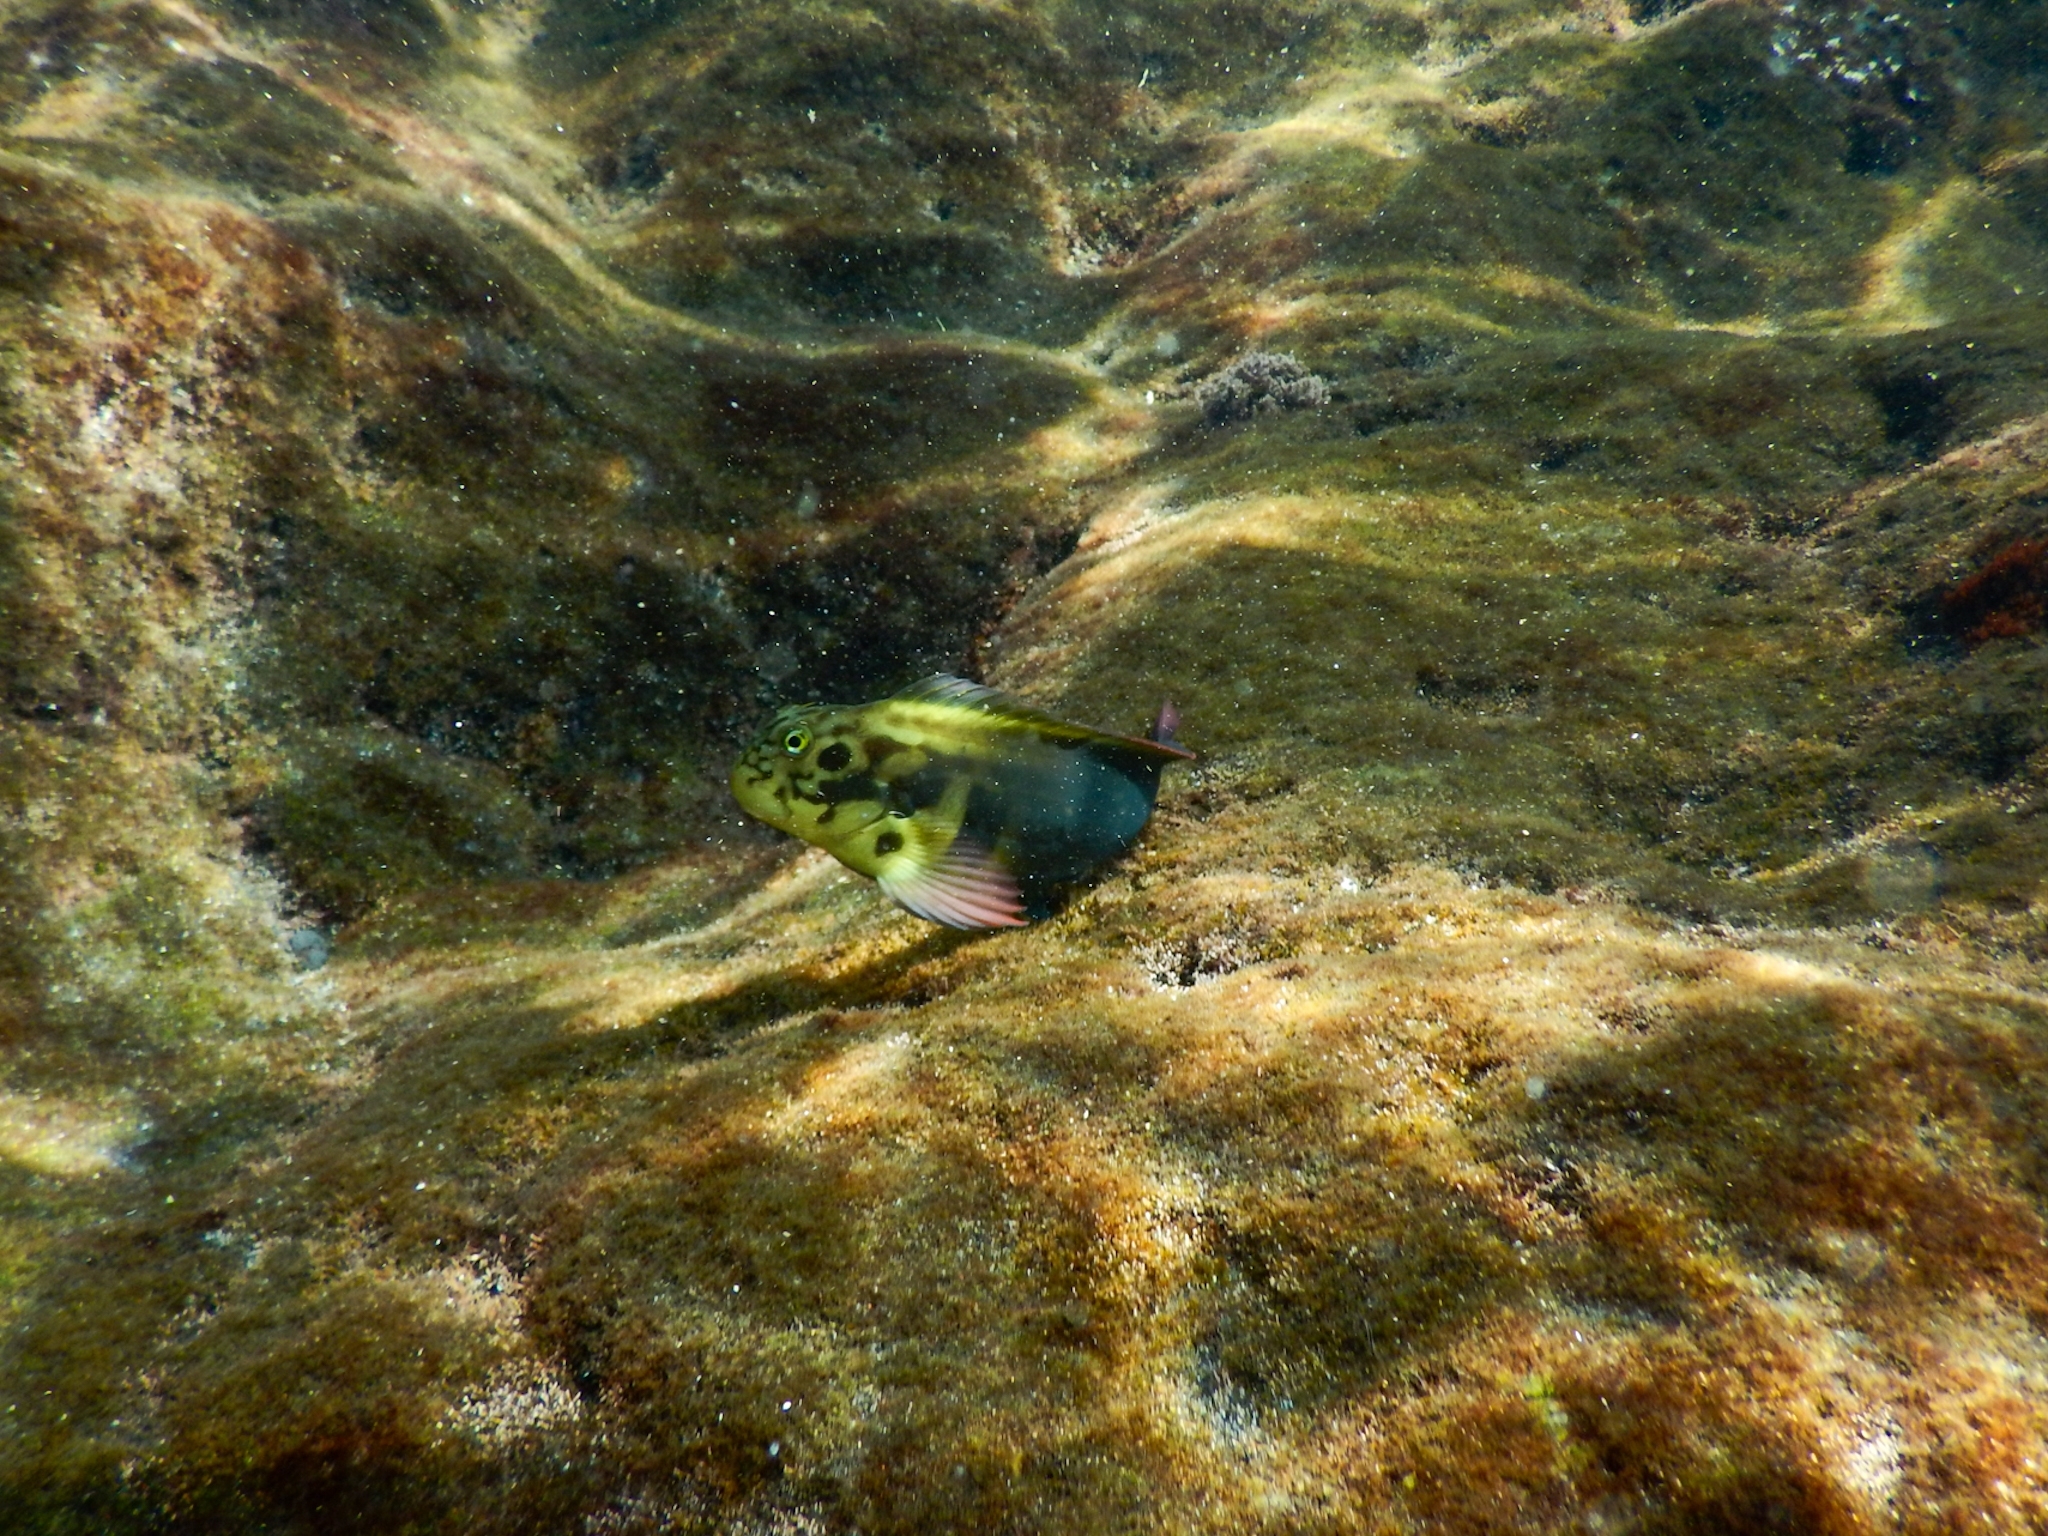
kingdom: Animalia
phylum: Chordata
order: Perciformes
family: Blenniidae
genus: Ophioblennius
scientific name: Ophioblennius atlanticus
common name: Redlip blenny
